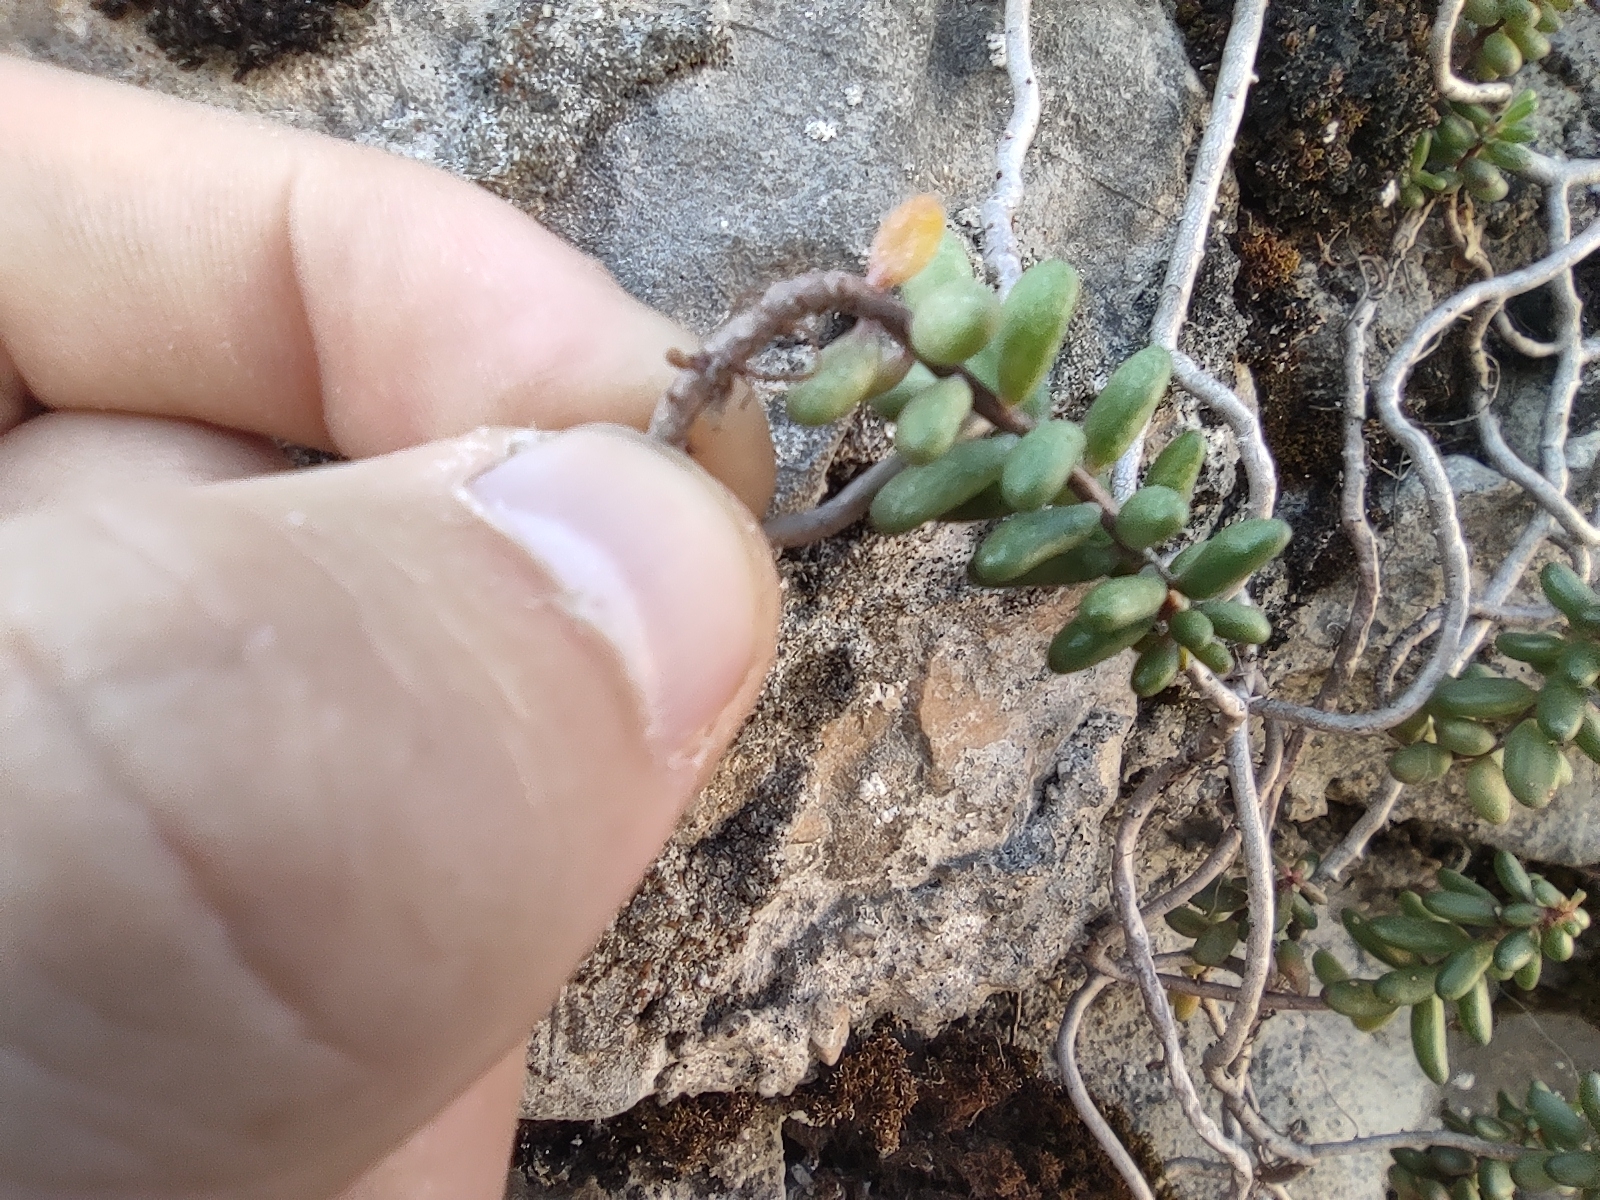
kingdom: Plantae
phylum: Tracheophyta
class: Magnoliopsida
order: Saxifragales
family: Crassulaceae
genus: Sedum
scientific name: Sedum album
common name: White stonecrop
